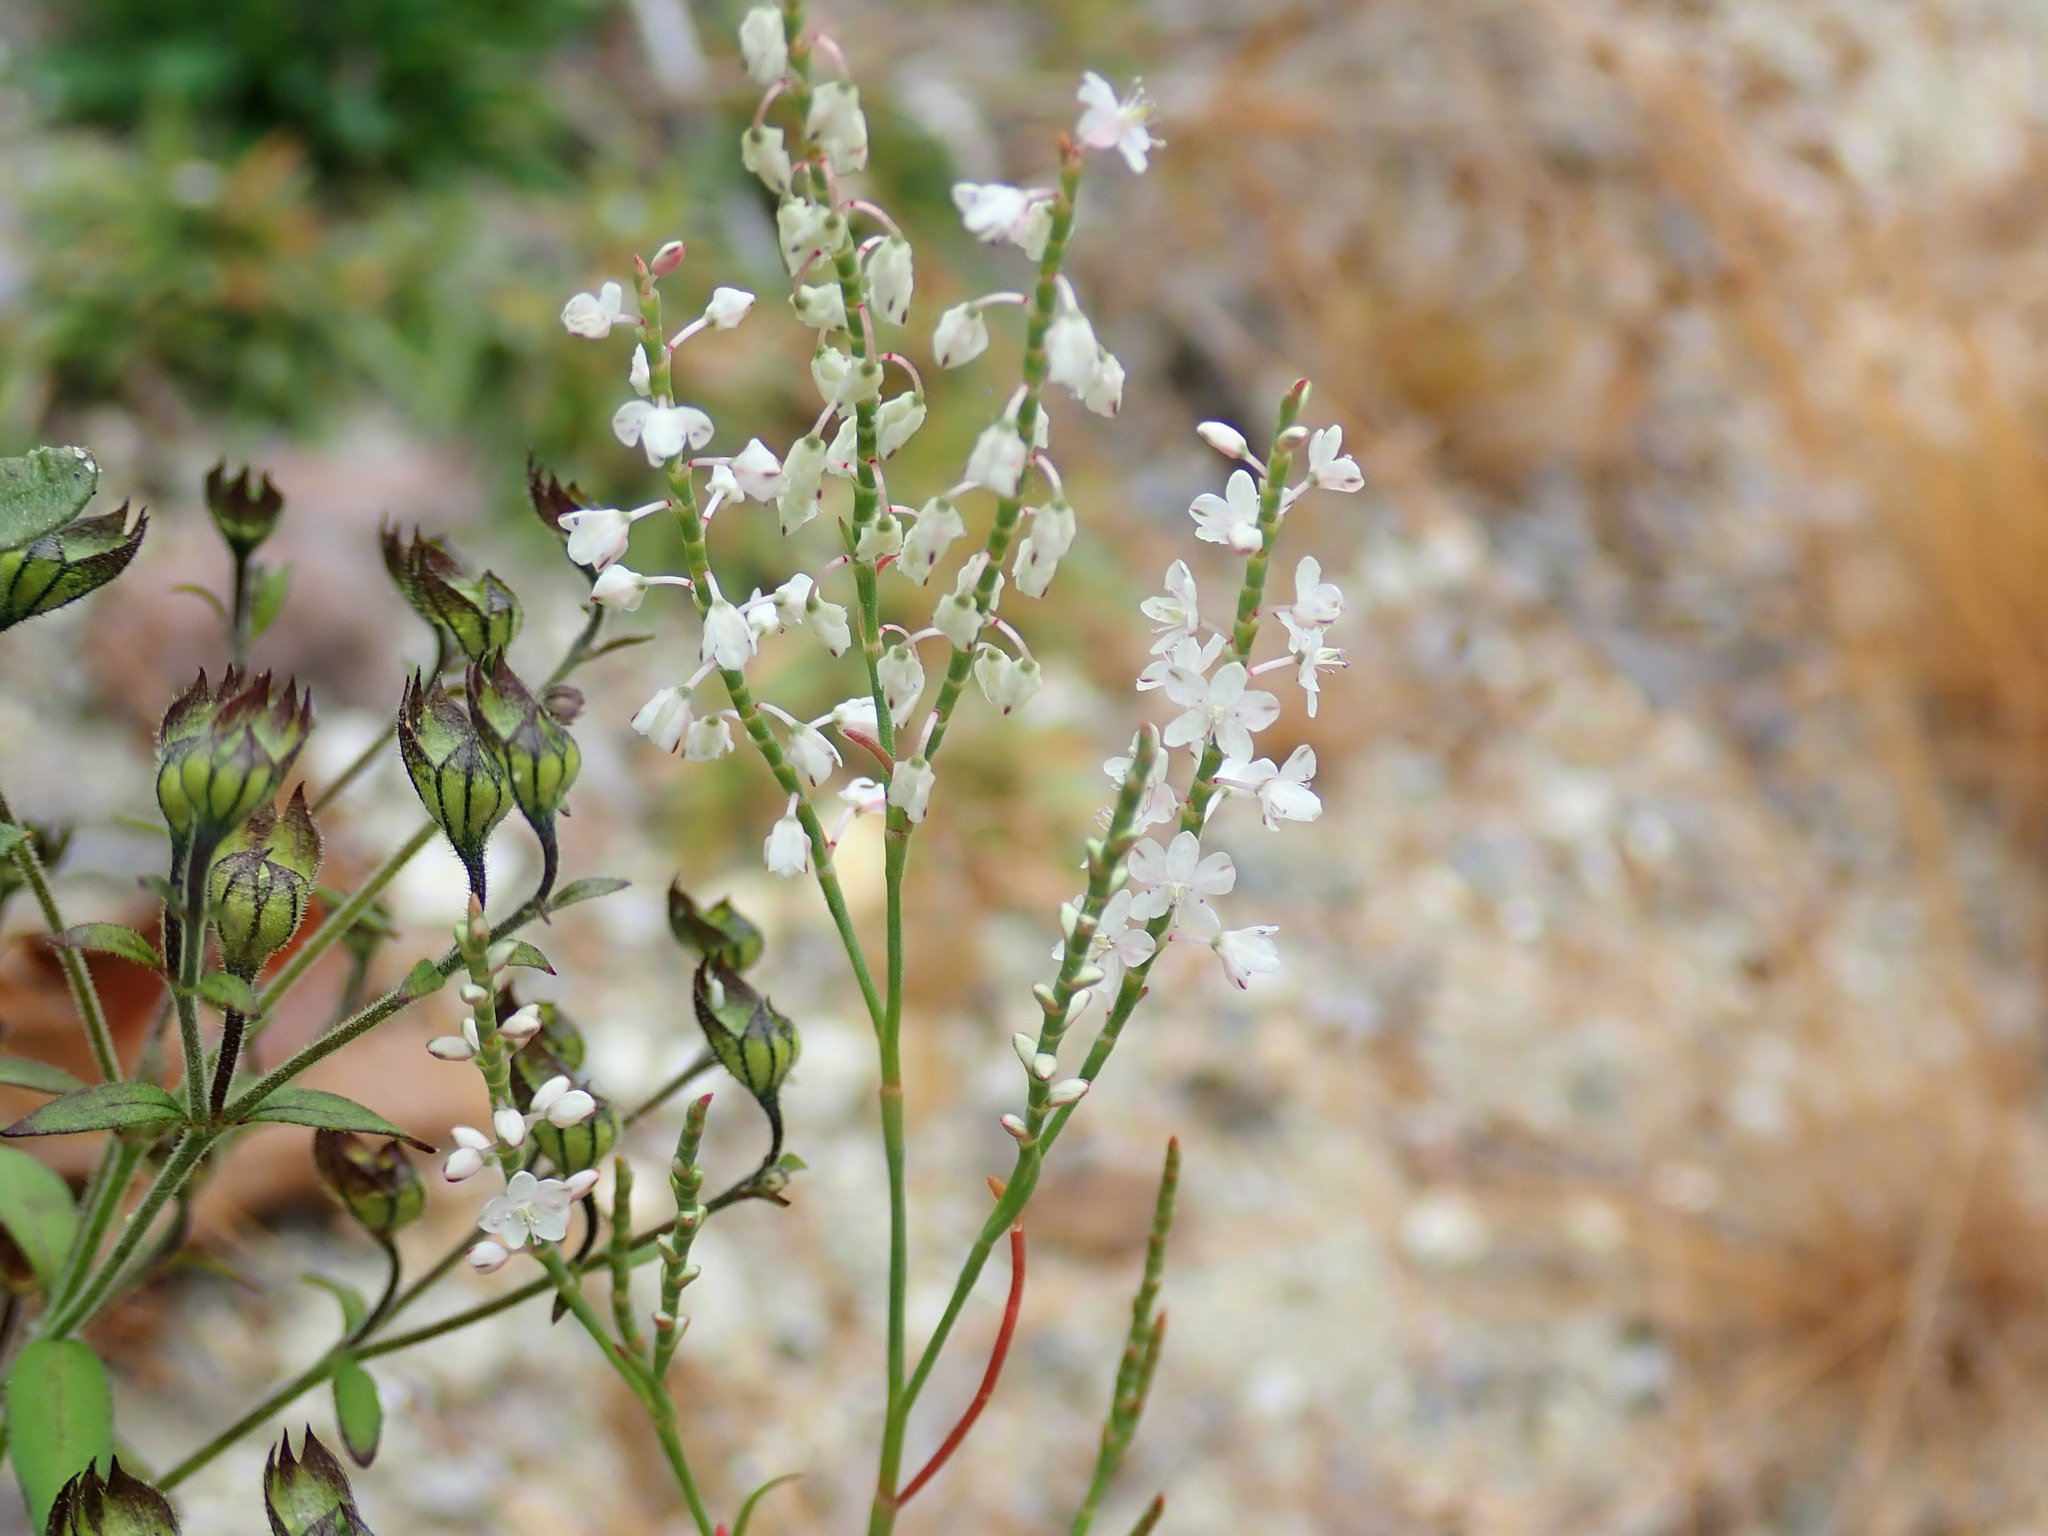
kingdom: Plantae
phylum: Tracheophyta
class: Magnoliopsida
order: Caryophyllales
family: Polygonaceae
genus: Polygonella
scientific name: Polygonella articulata
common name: Coastal jointweed
